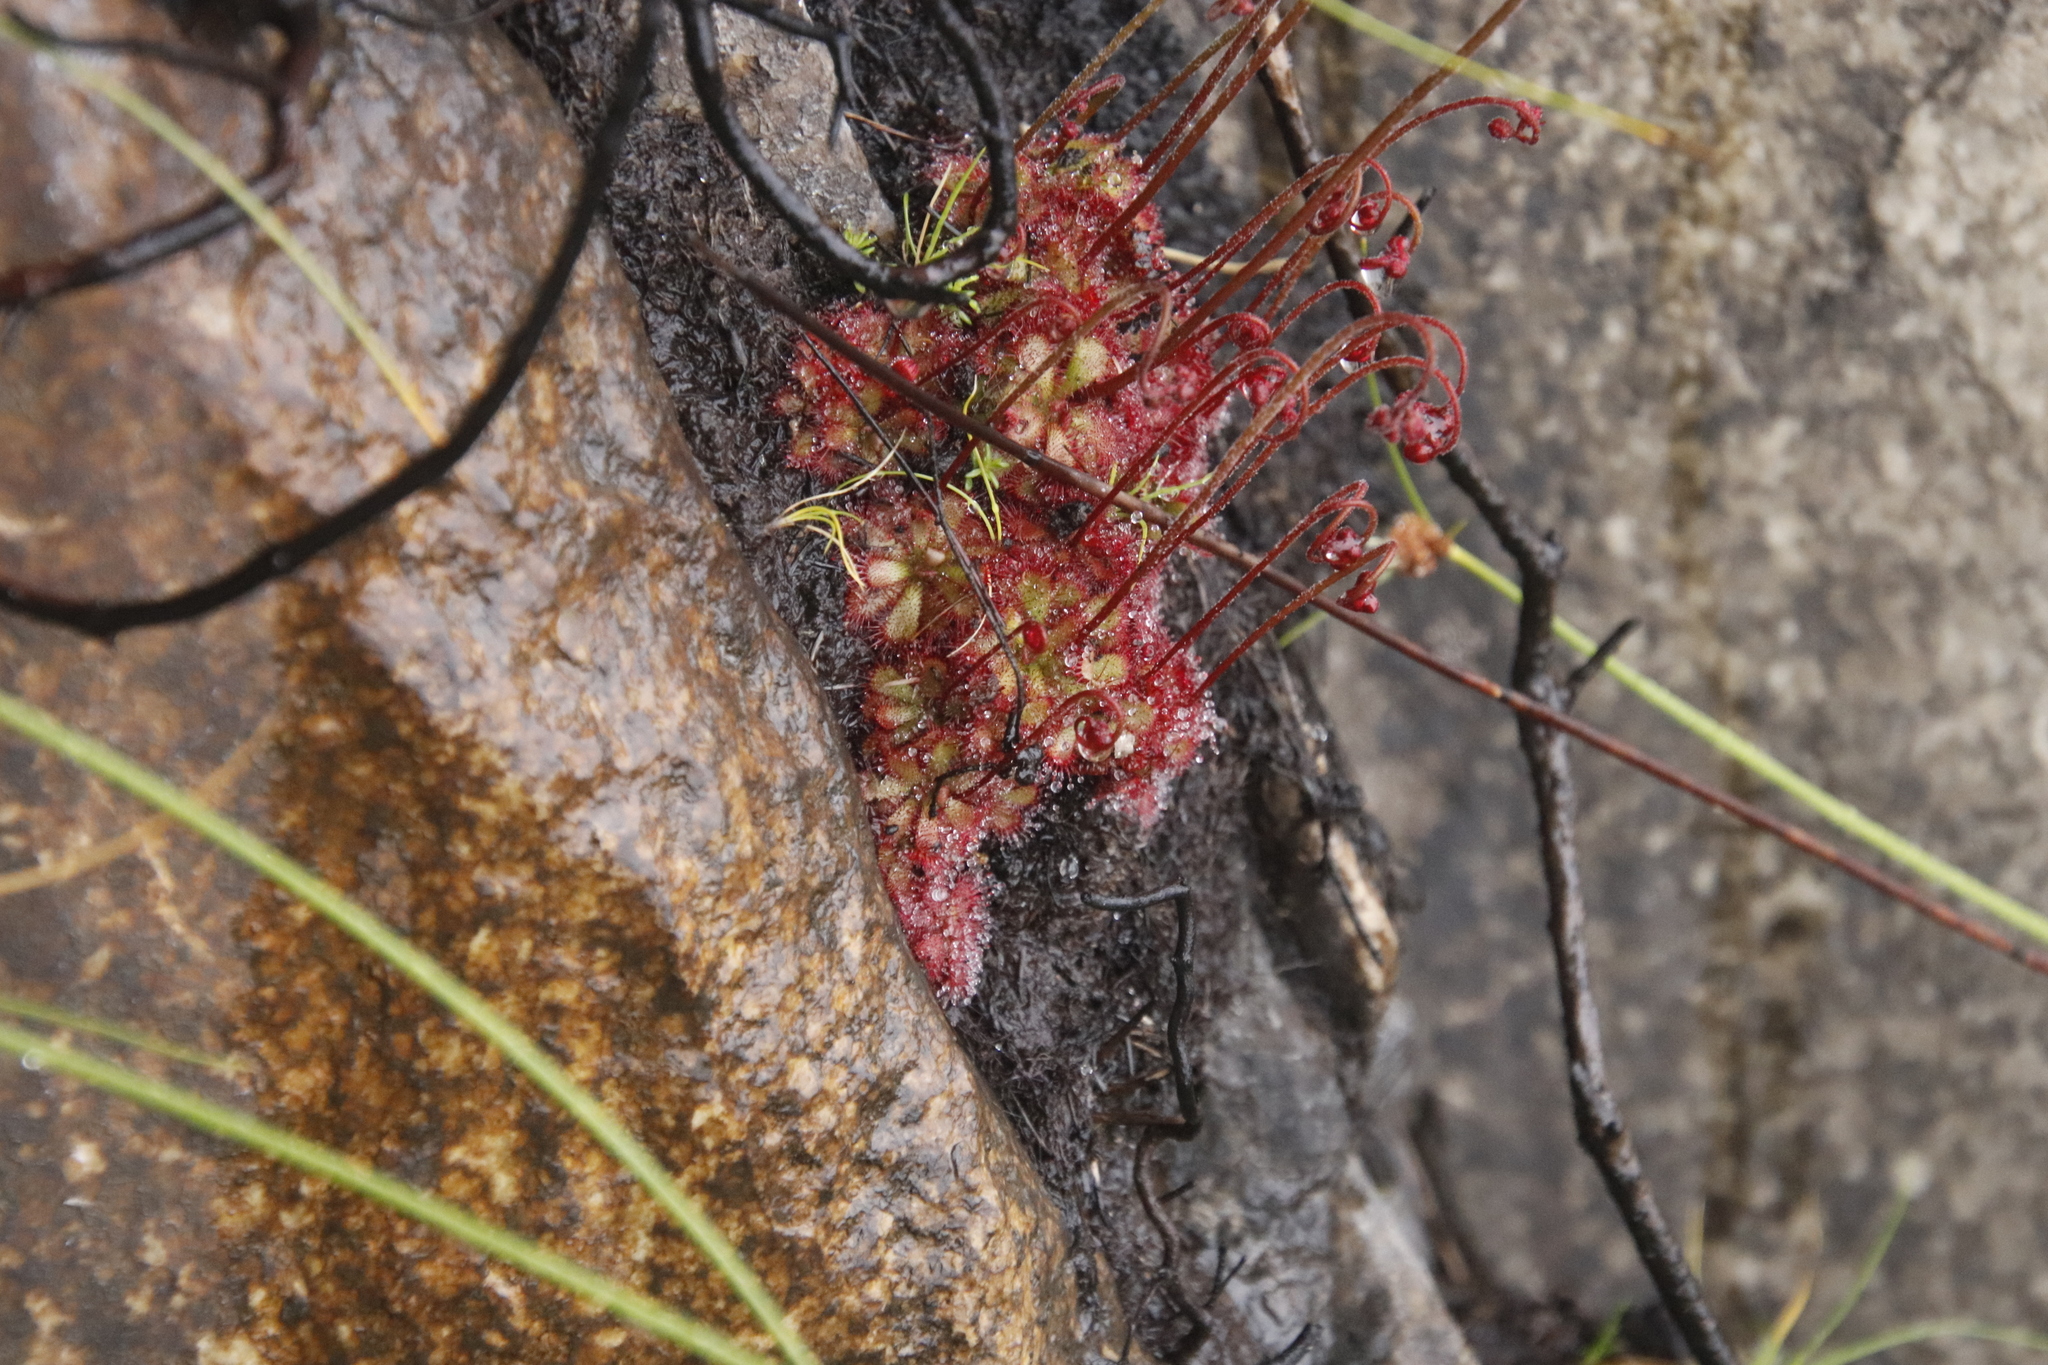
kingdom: Plantae
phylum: Tracheophyta
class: Magnoliopsida
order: Caryophyllales
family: Droseraceae
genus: Drosera
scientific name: Drosera cuneifolia
